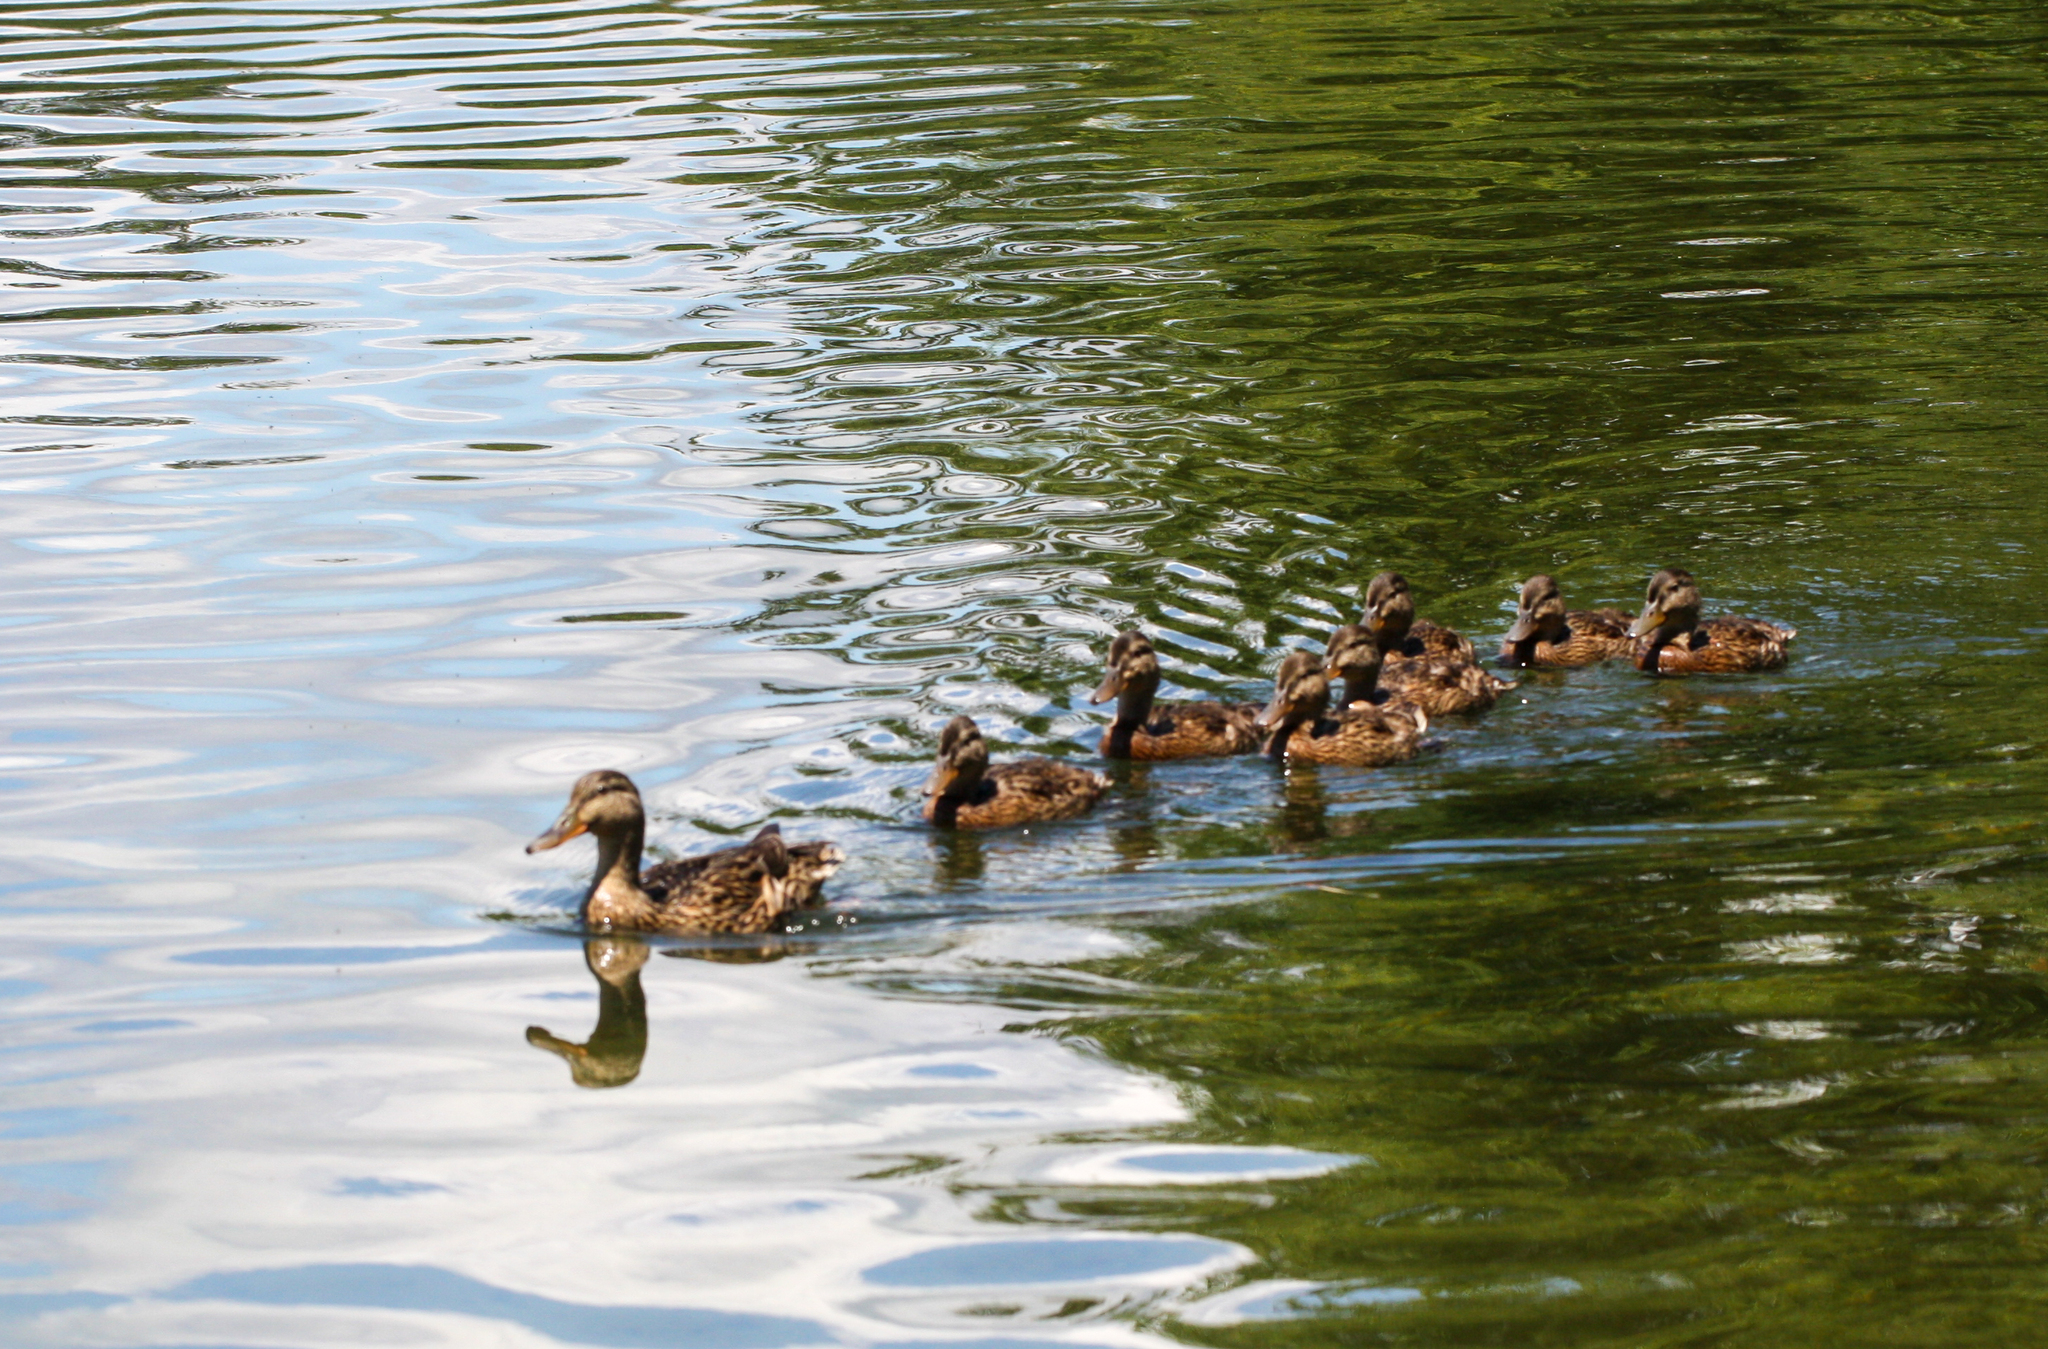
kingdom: Animalia
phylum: Chordata
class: Aves
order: Anseriformes
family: Anatidae
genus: Anas
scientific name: Anas platyrhynchos
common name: Mallard
